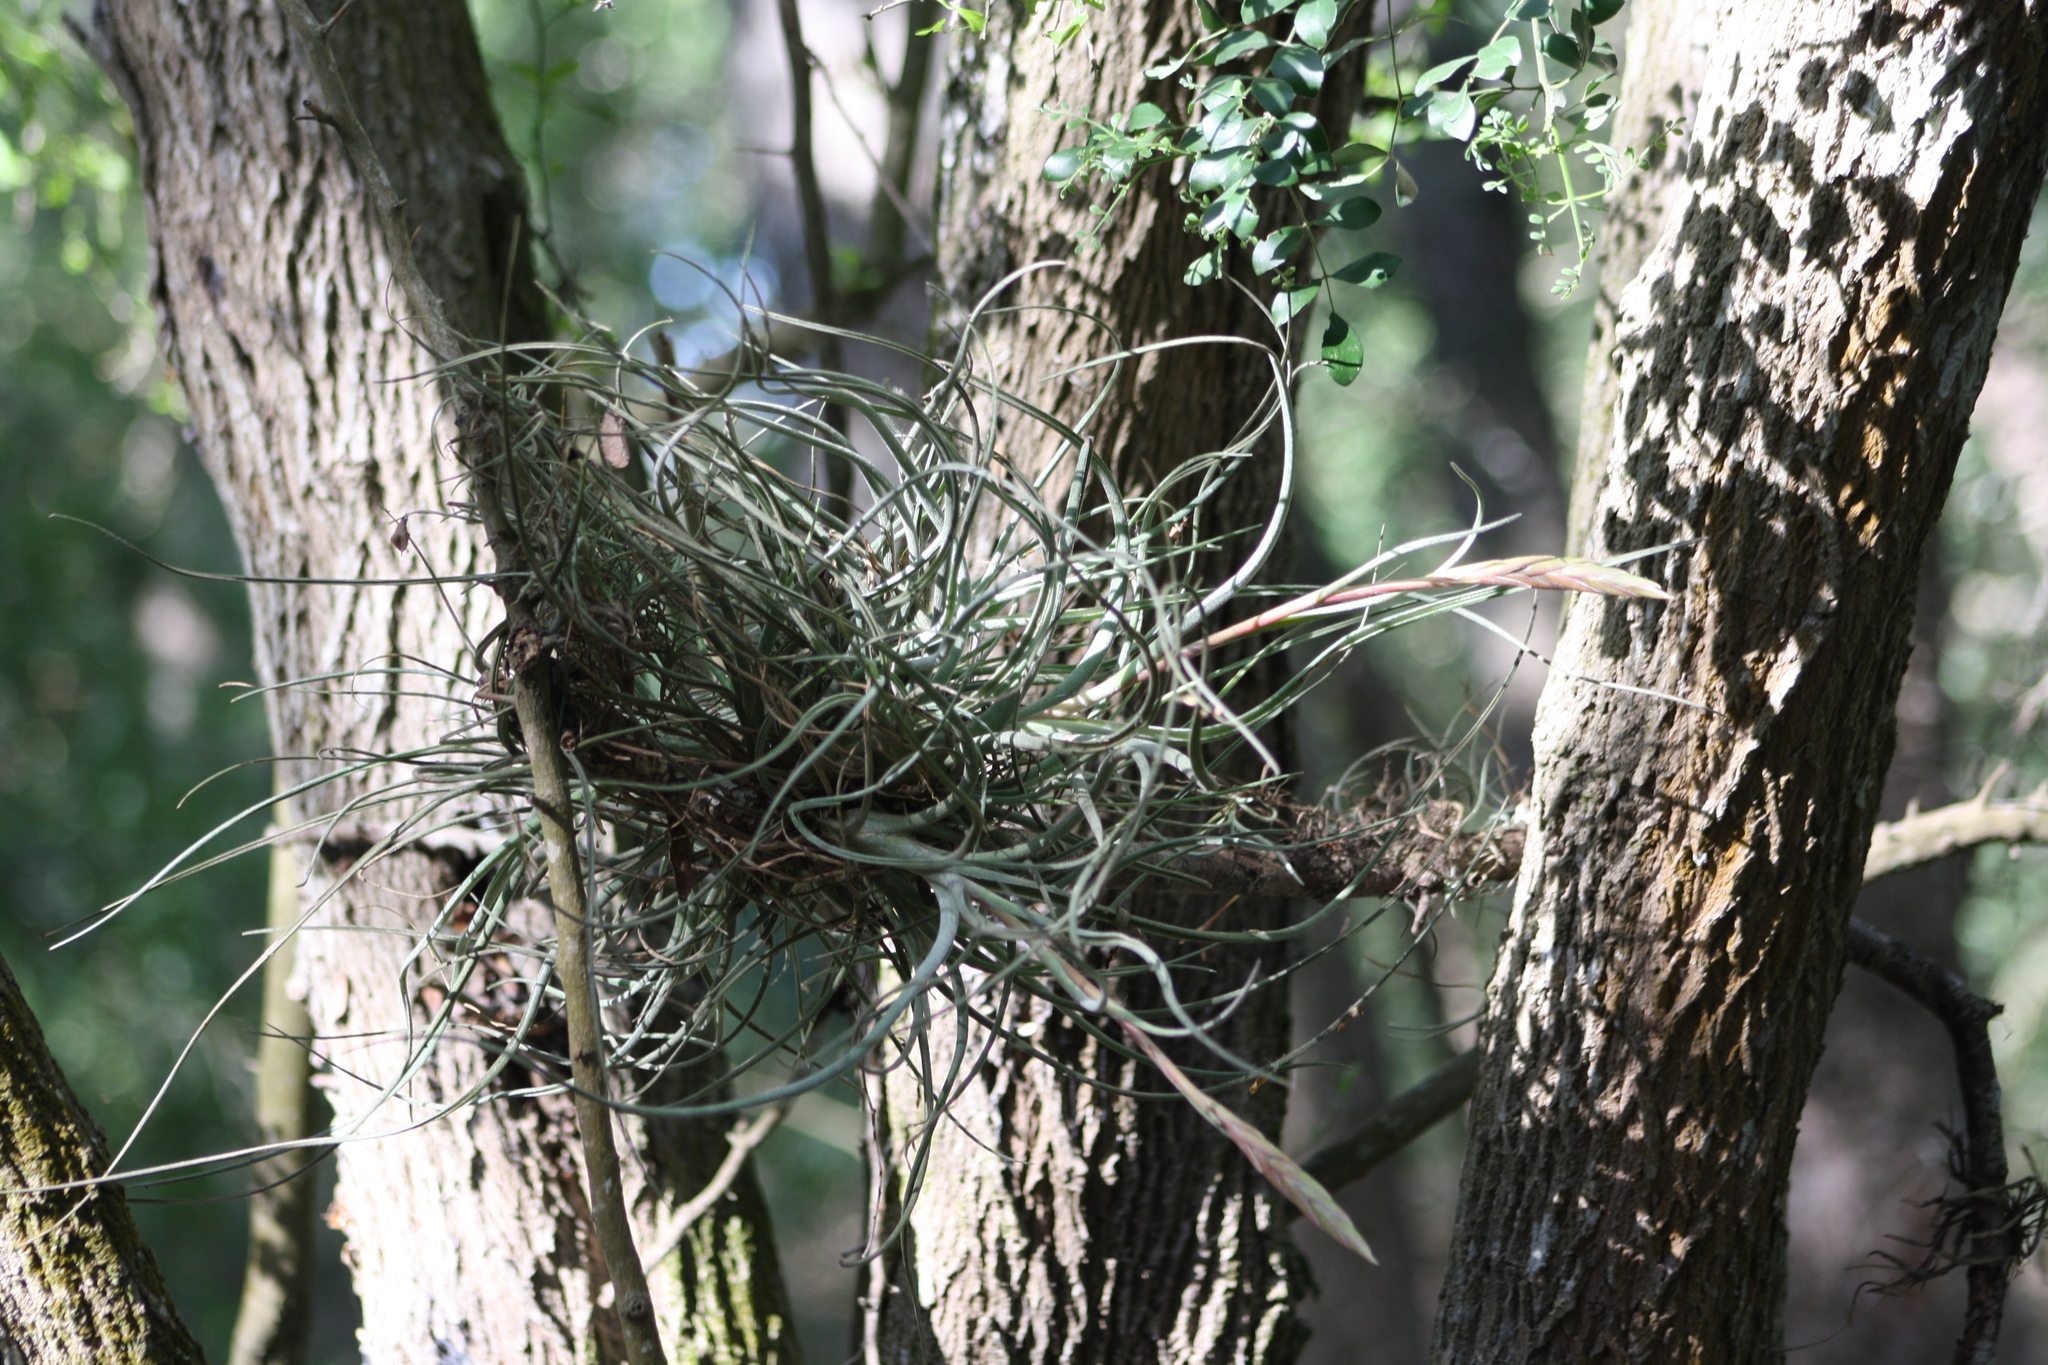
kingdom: Plantae
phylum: Tracheophyta
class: Liliopsida
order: Poales
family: Bromeliaceae
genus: Tillandsia
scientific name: Tillandsia baileyi
